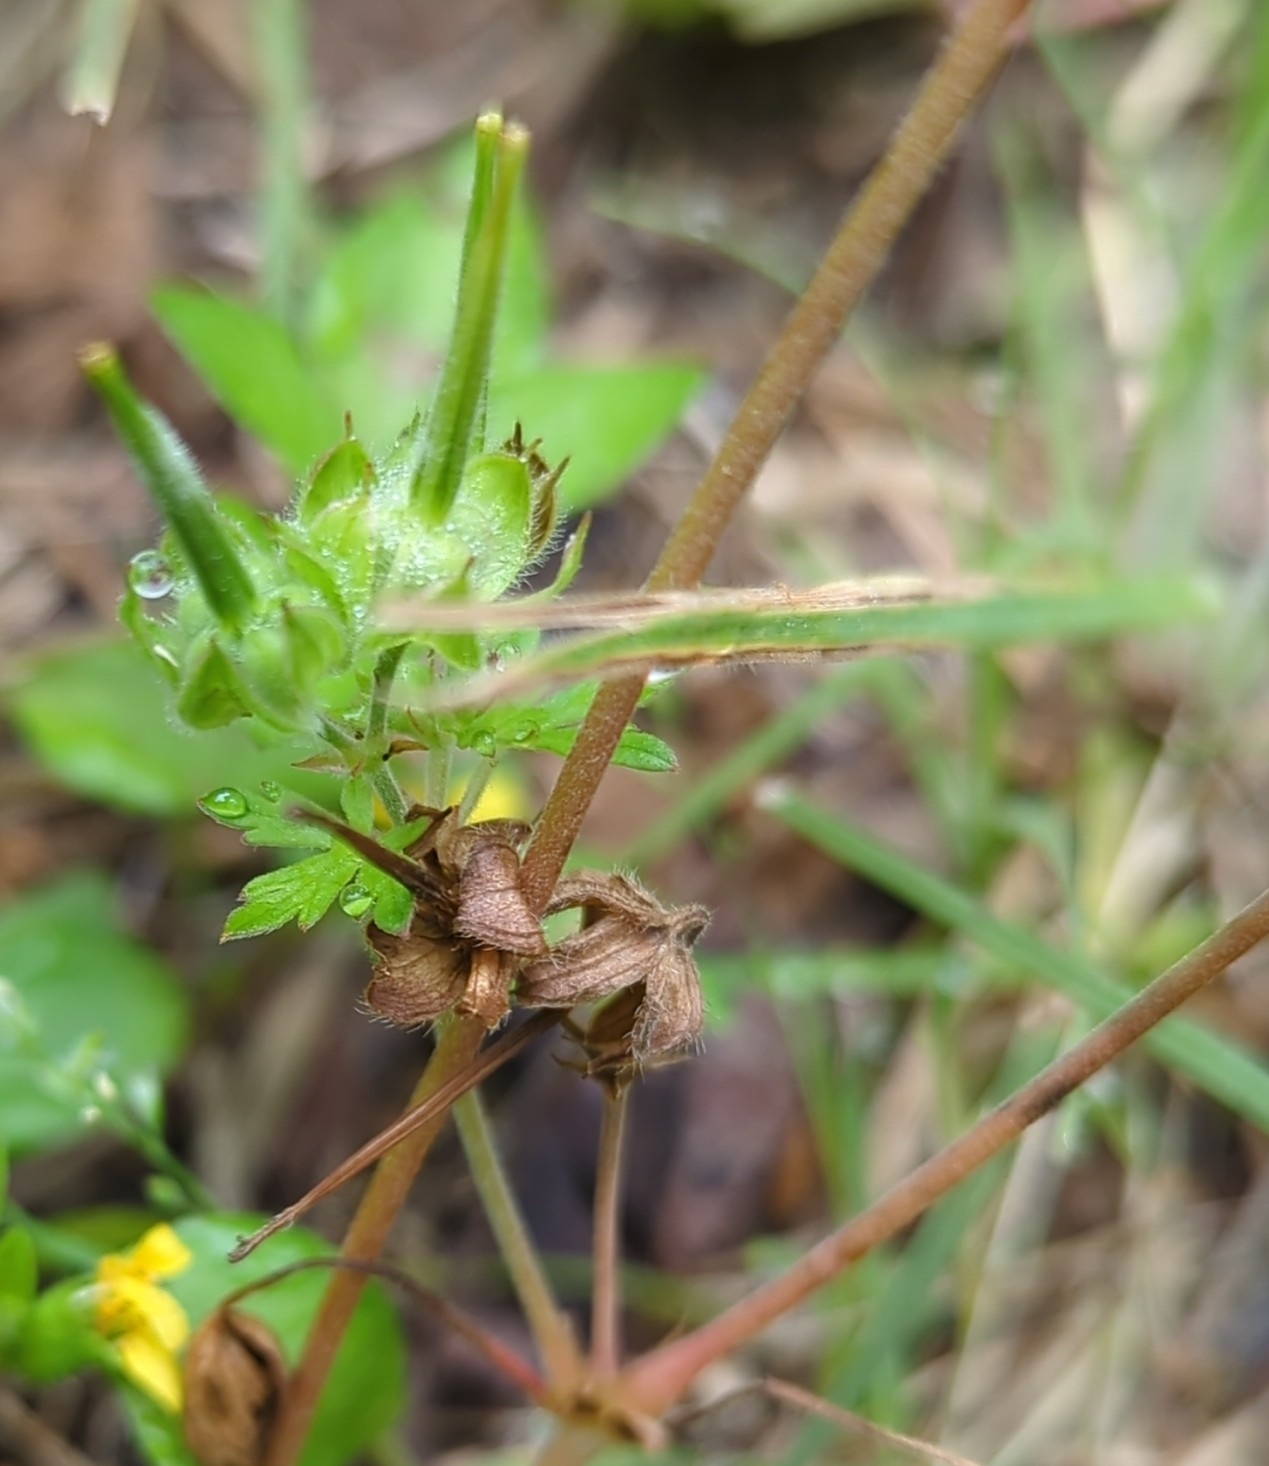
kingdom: Plantae
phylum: Tracheophyta
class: Magnoliopsida
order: Geraniales
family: Geraniaceae
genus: Geranium
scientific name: Geranium carolinianum
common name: Carolina crane's-bill
